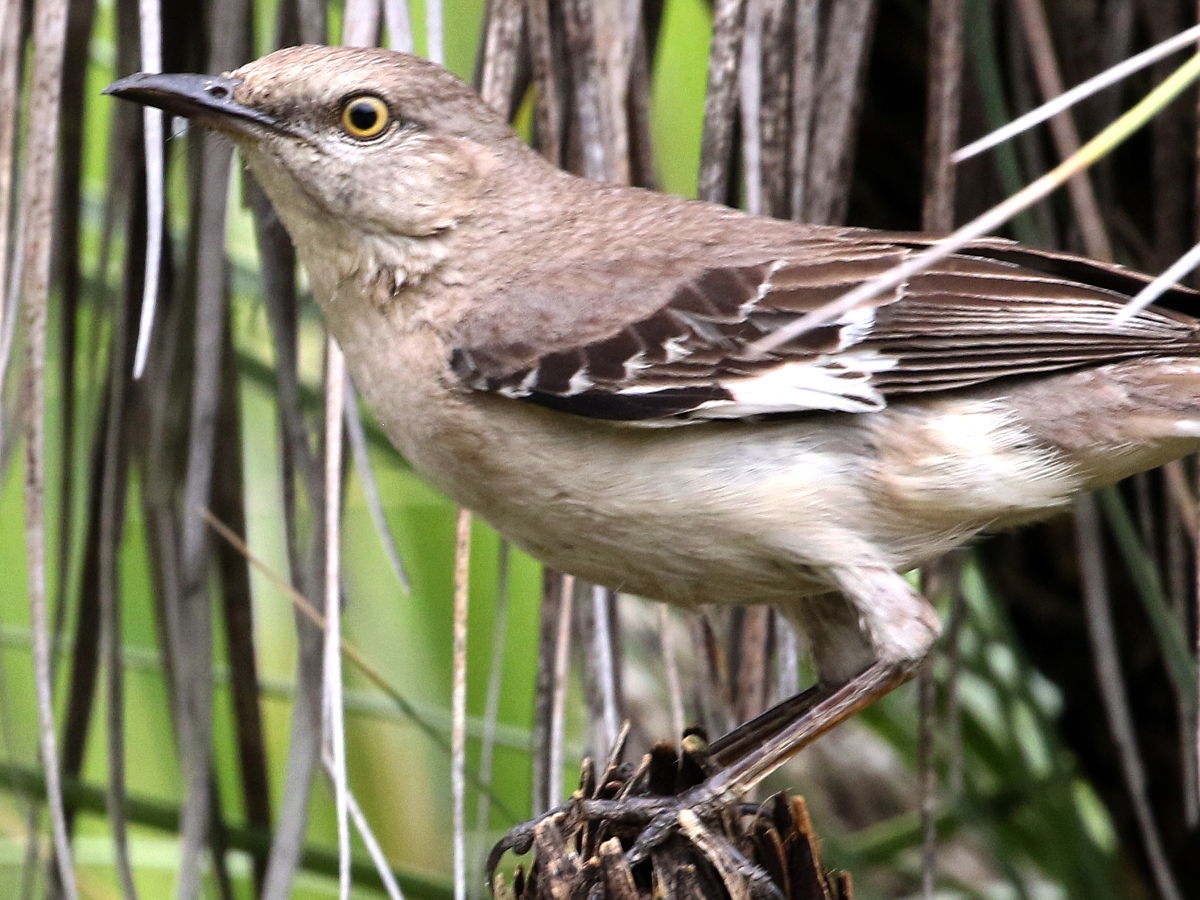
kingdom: Animalia
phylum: Chordata
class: Aves
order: Passeriformes
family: Mimidae
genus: Mimus
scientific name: Mimus polyglottos
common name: Northern mockingbird
